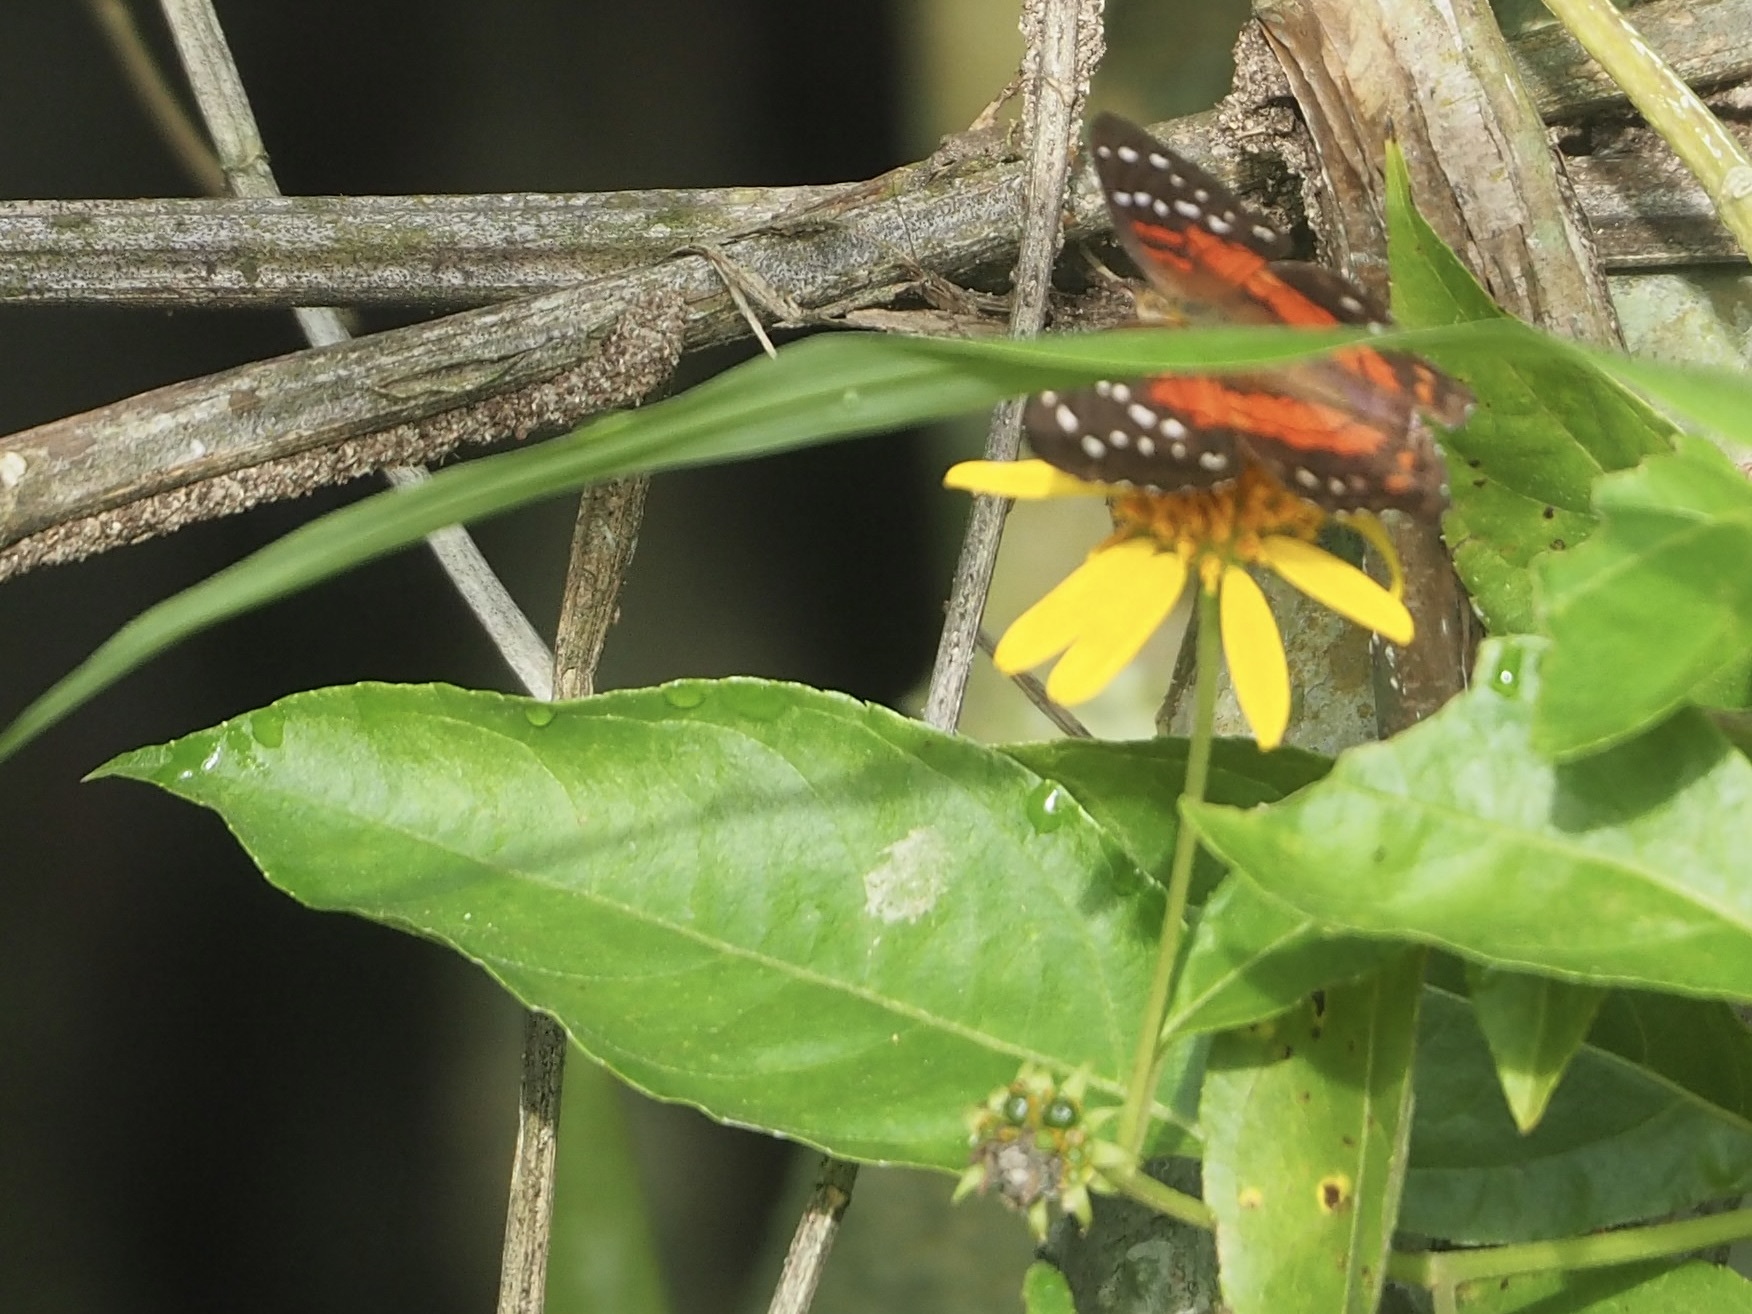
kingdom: Animalia
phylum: Arthropoda
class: Insecta
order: Lepidoptera
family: Nymphalidae
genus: Anartia
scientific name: Anartia amathea
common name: Red peacock
